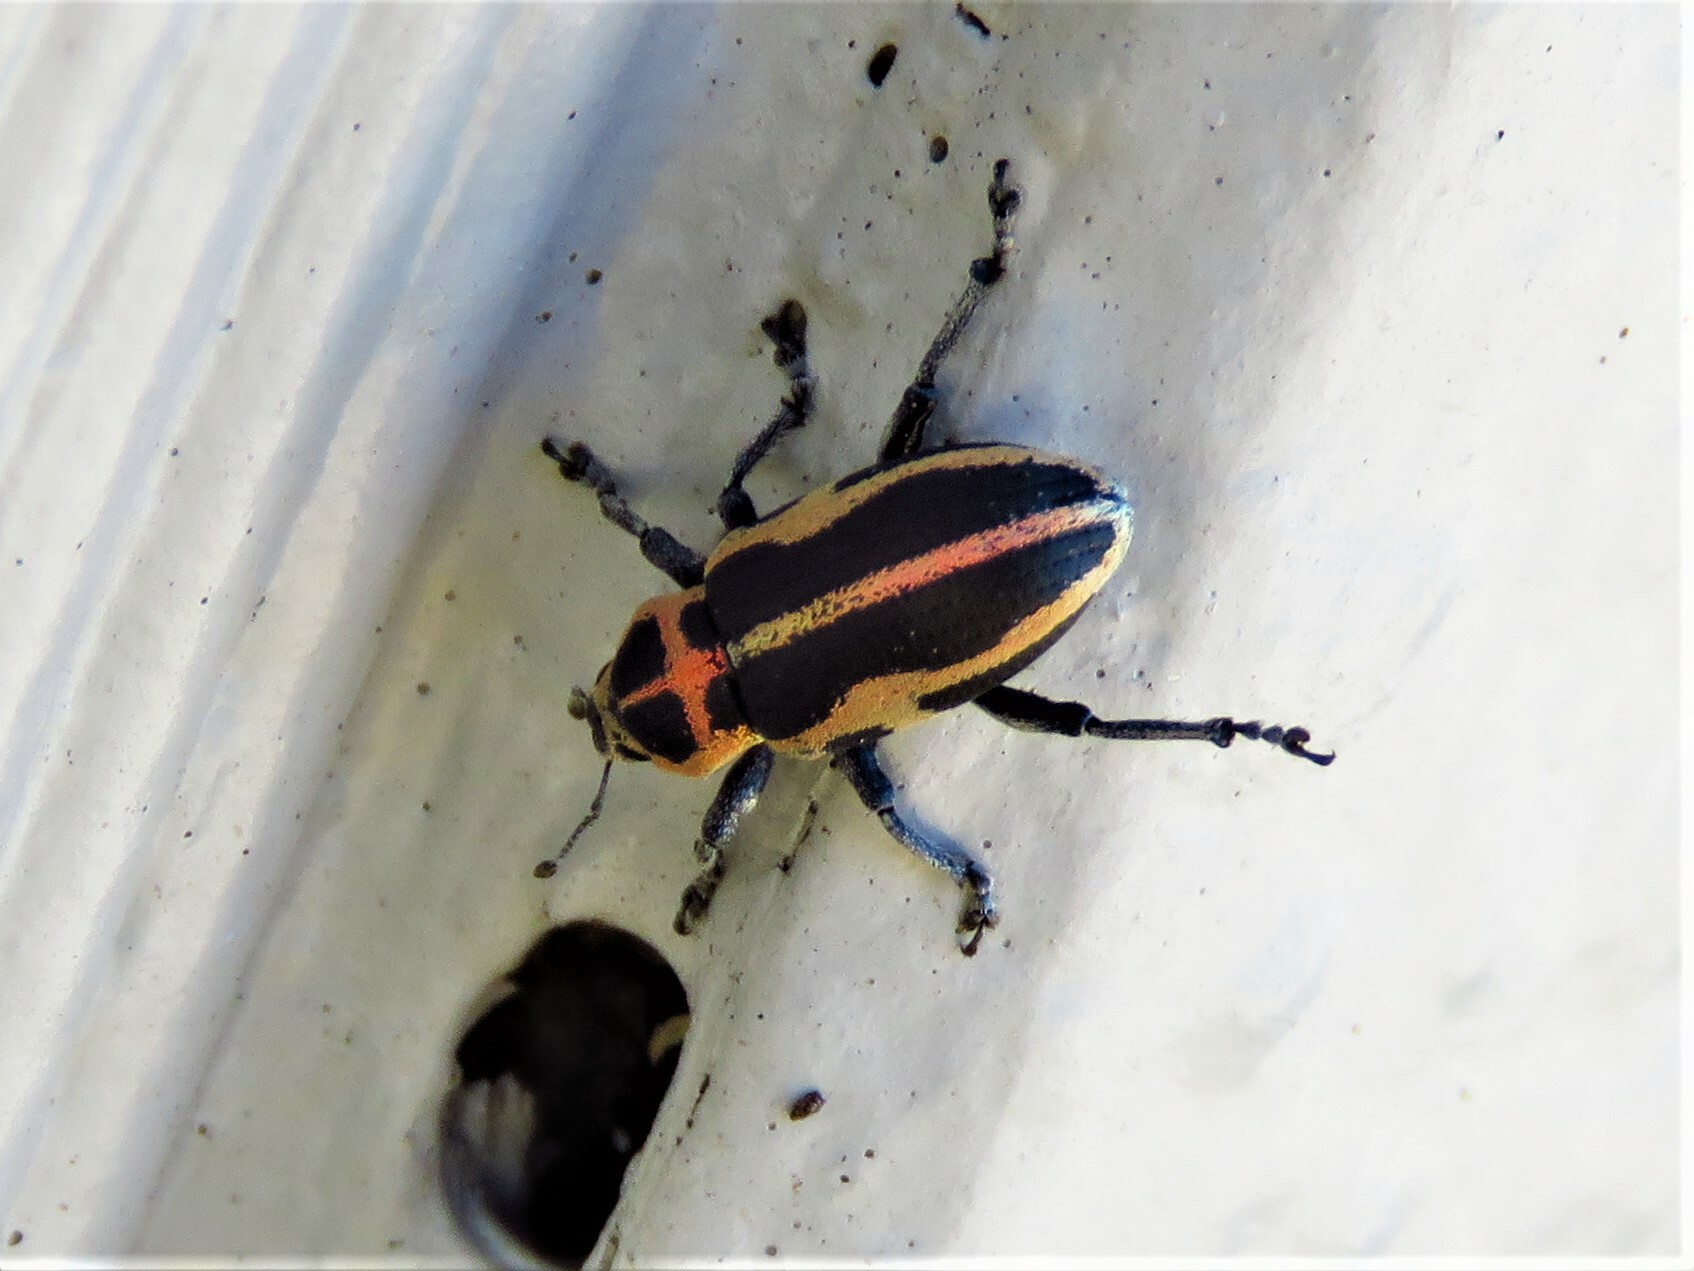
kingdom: Animalia
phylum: Arthropoda
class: Insecta
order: Coleoptera
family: Curculionidae
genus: Eudiagogus
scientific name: Eudiagogus pulcher
